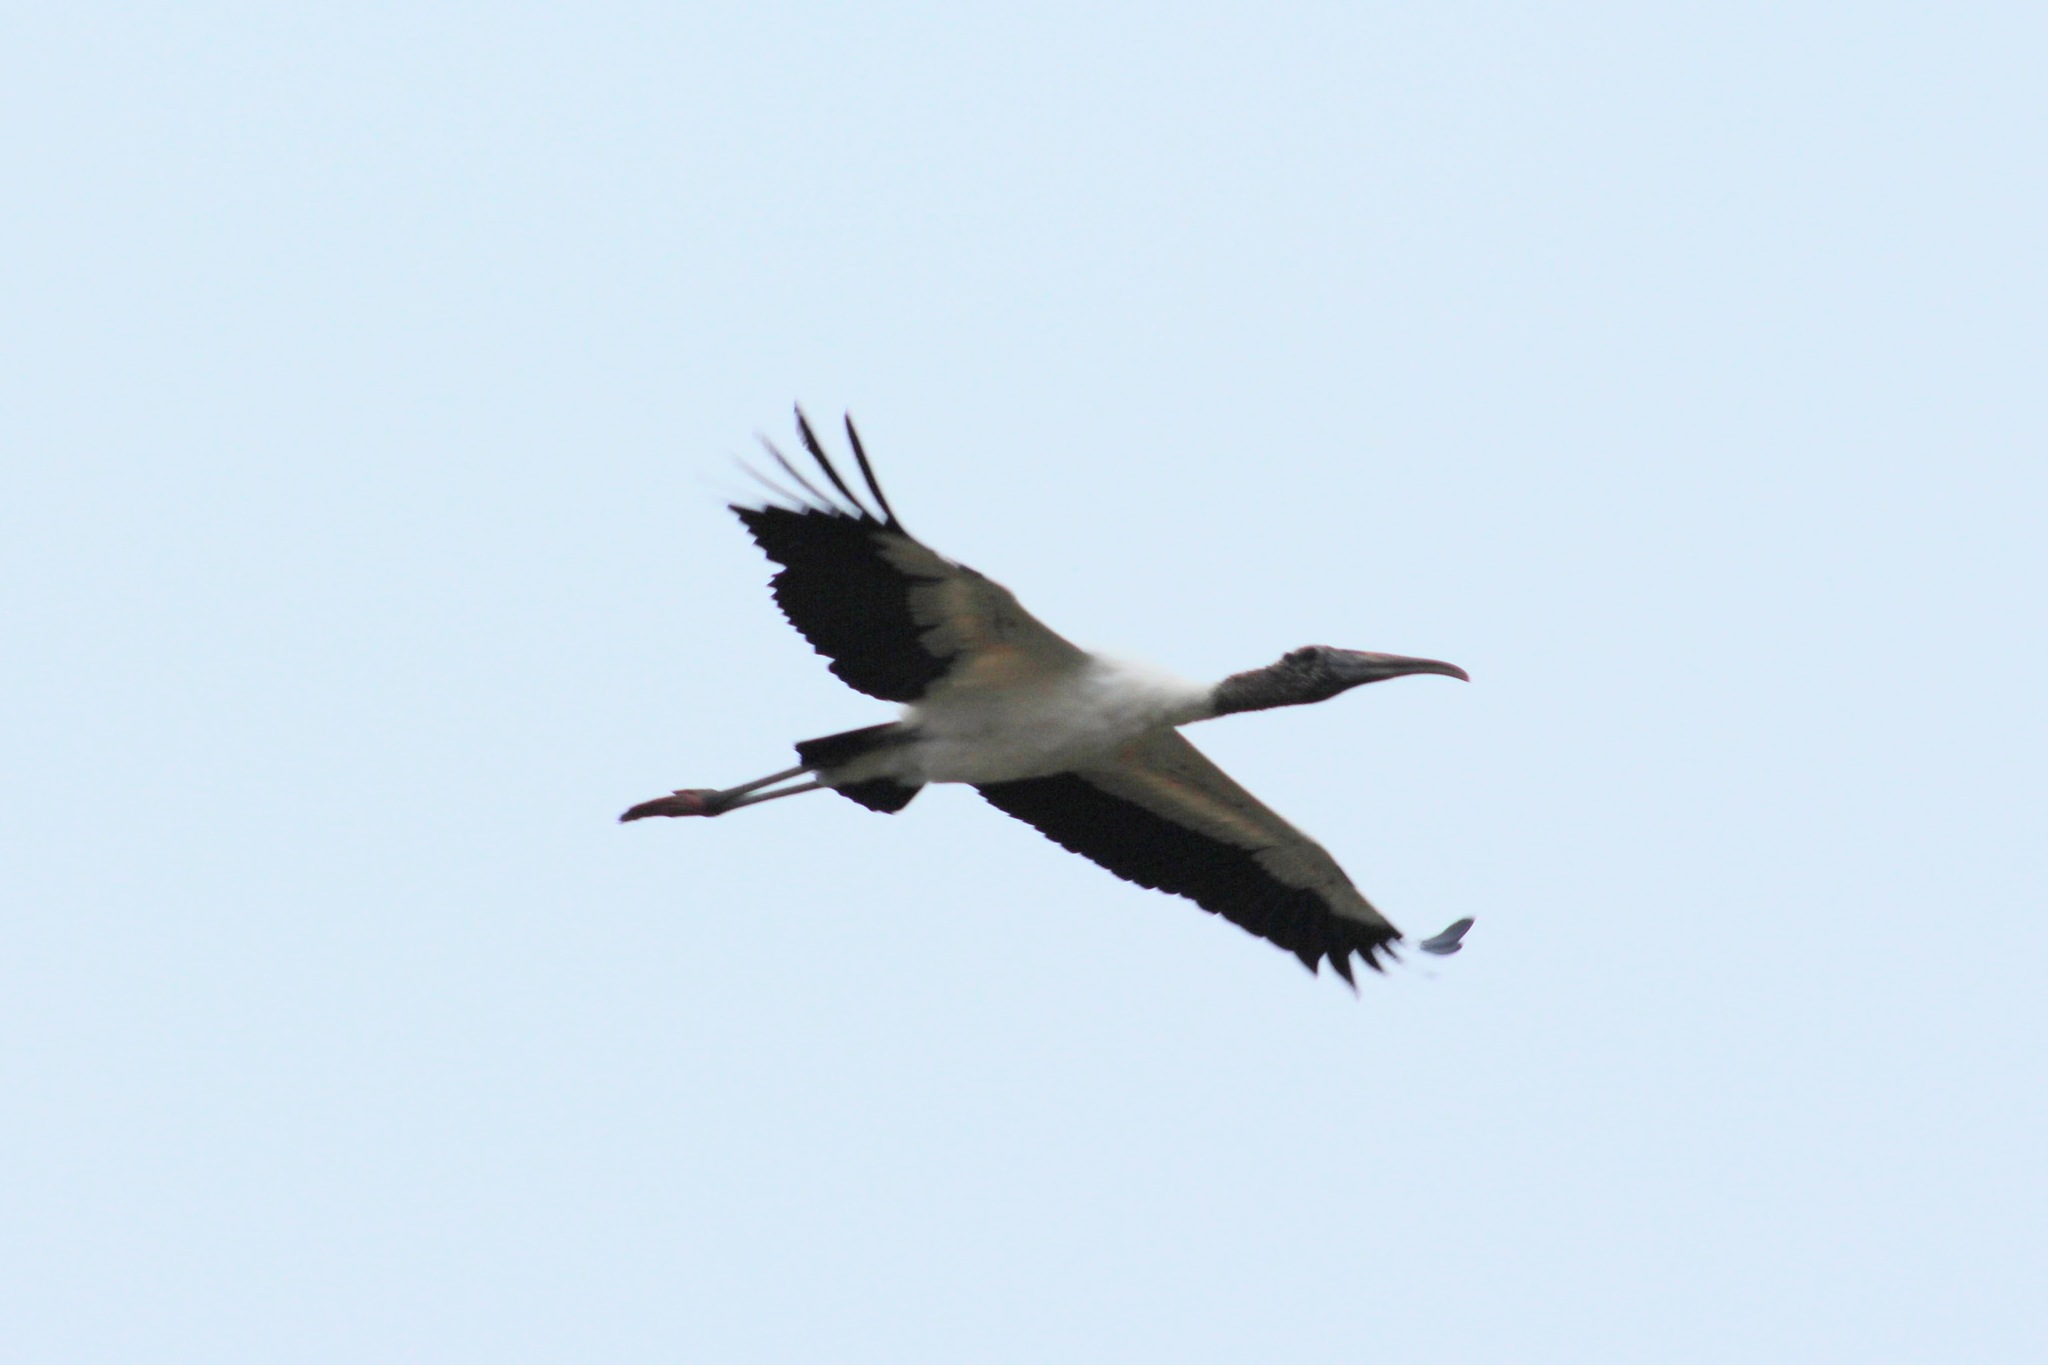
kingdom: Animalia
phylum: Chordata
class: Aves
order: Ciconiiformes
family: Ciconiidae
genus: Mycteria
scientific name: Mycteria americana
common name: Wood stork
